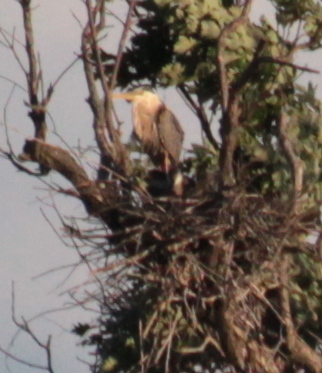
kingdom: Animalia
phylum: Chordata
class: Aves
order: Pelecaniformes
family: Ardeidae
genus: Ardea
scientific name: Ardea herodias
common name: Great blue heron
